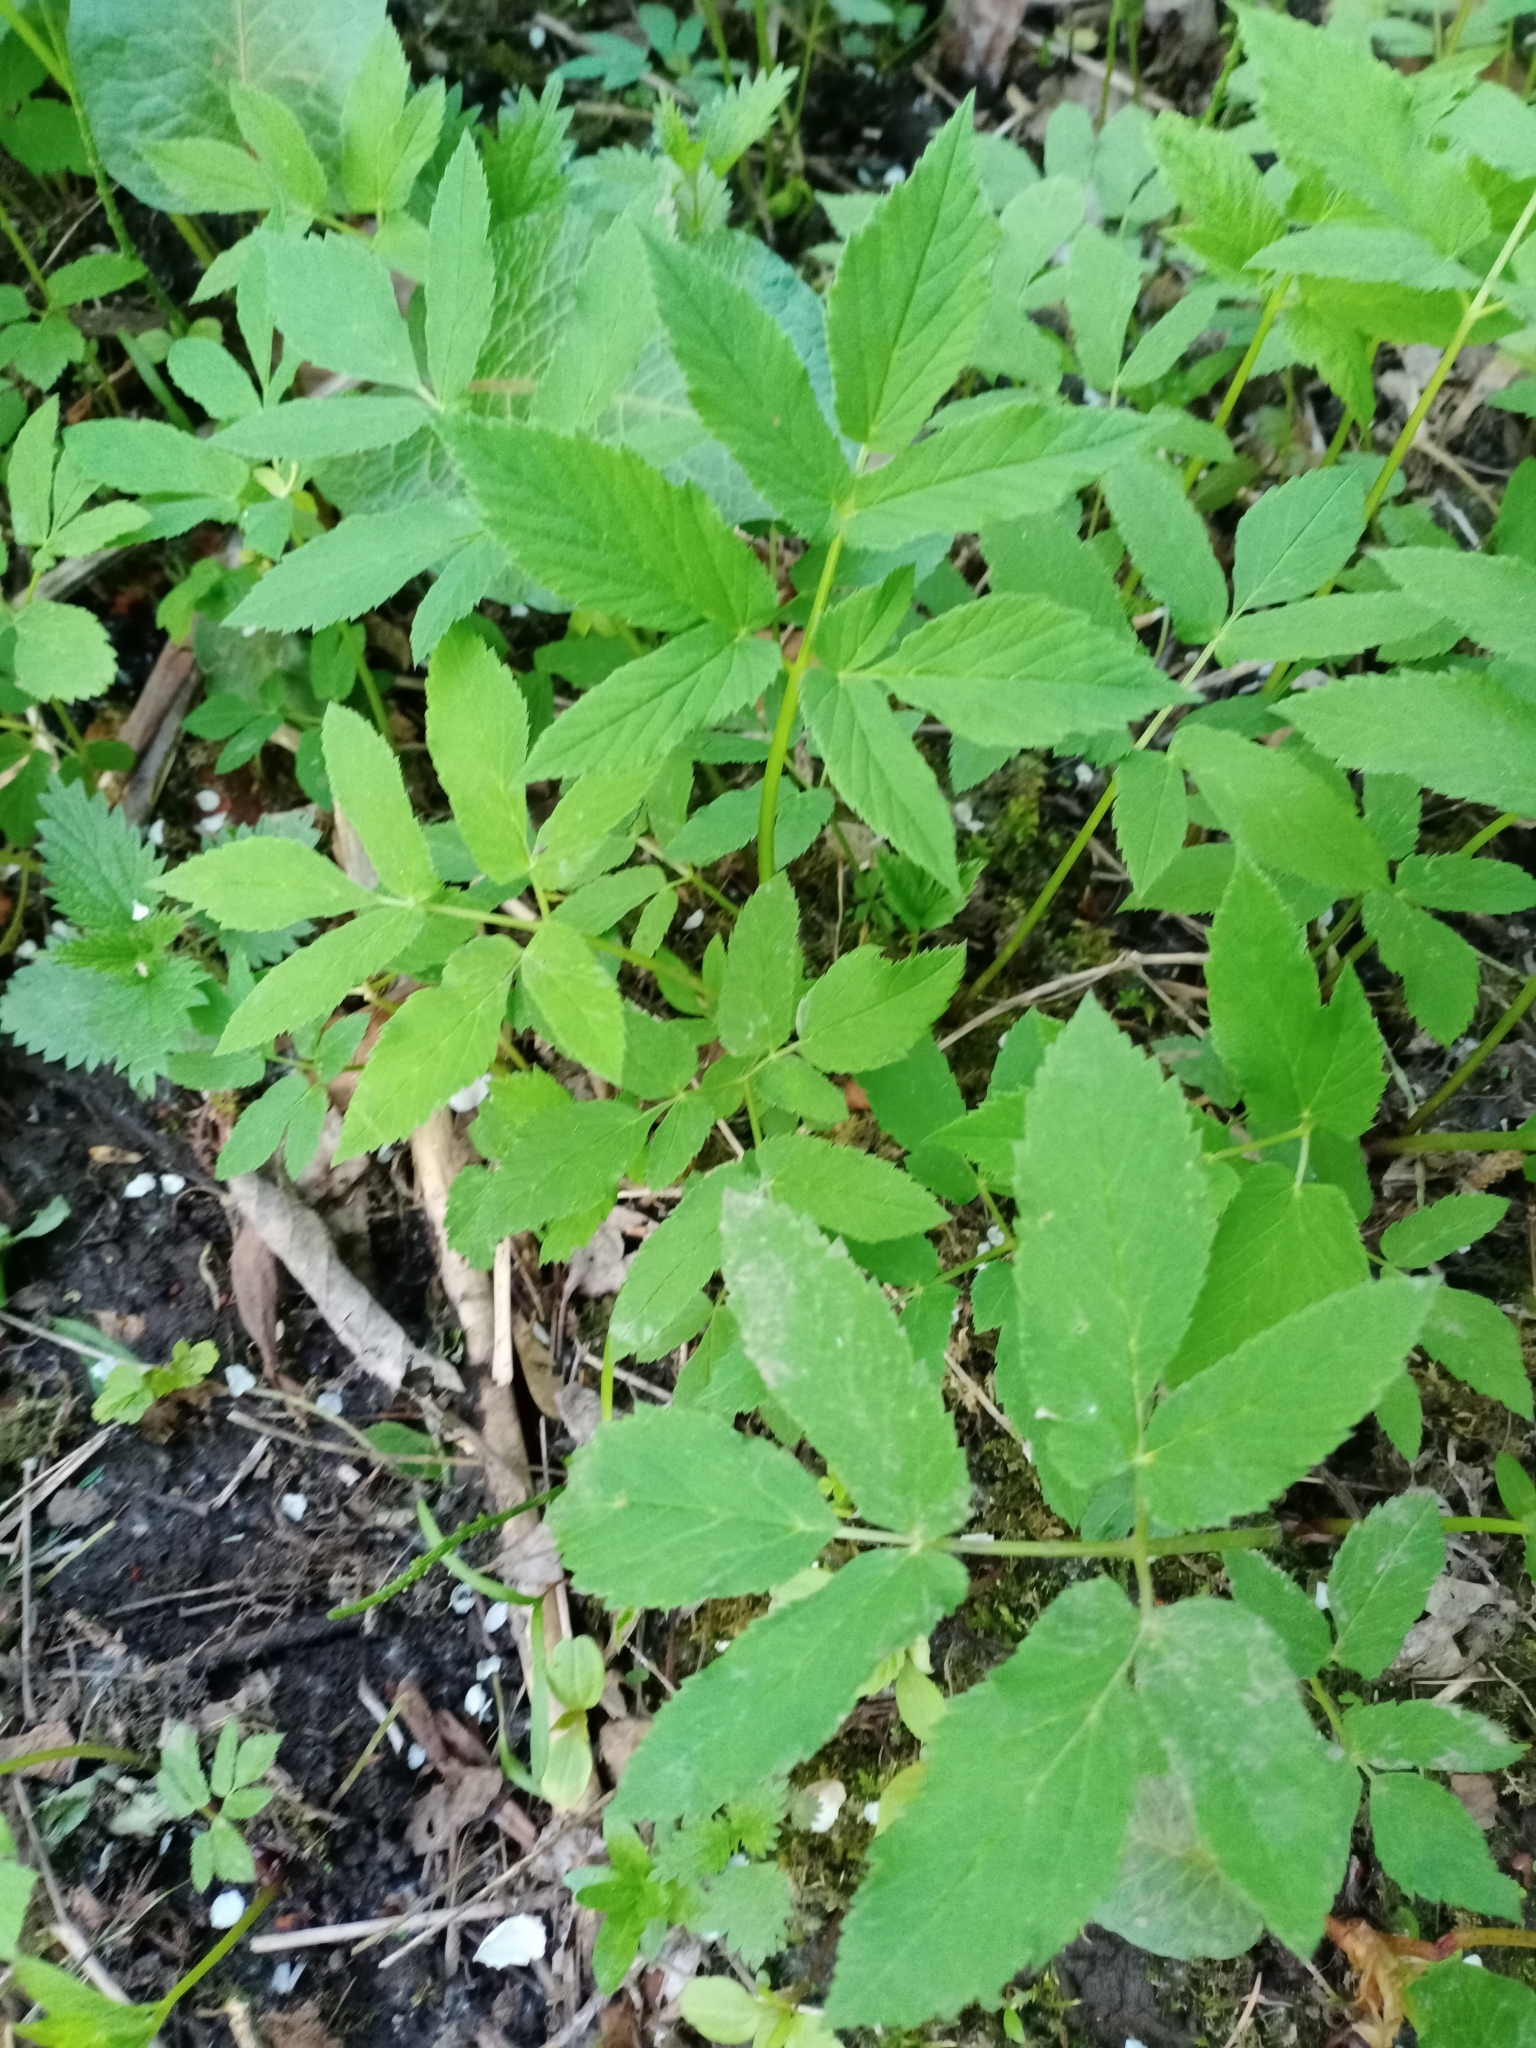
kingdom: Plantae
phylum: Tracheophyta
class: Magnoliopsida
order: Apiales
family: Apiaceae
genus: Aegopodium
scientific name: Aegopodium podagraria
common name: Ground-elder
